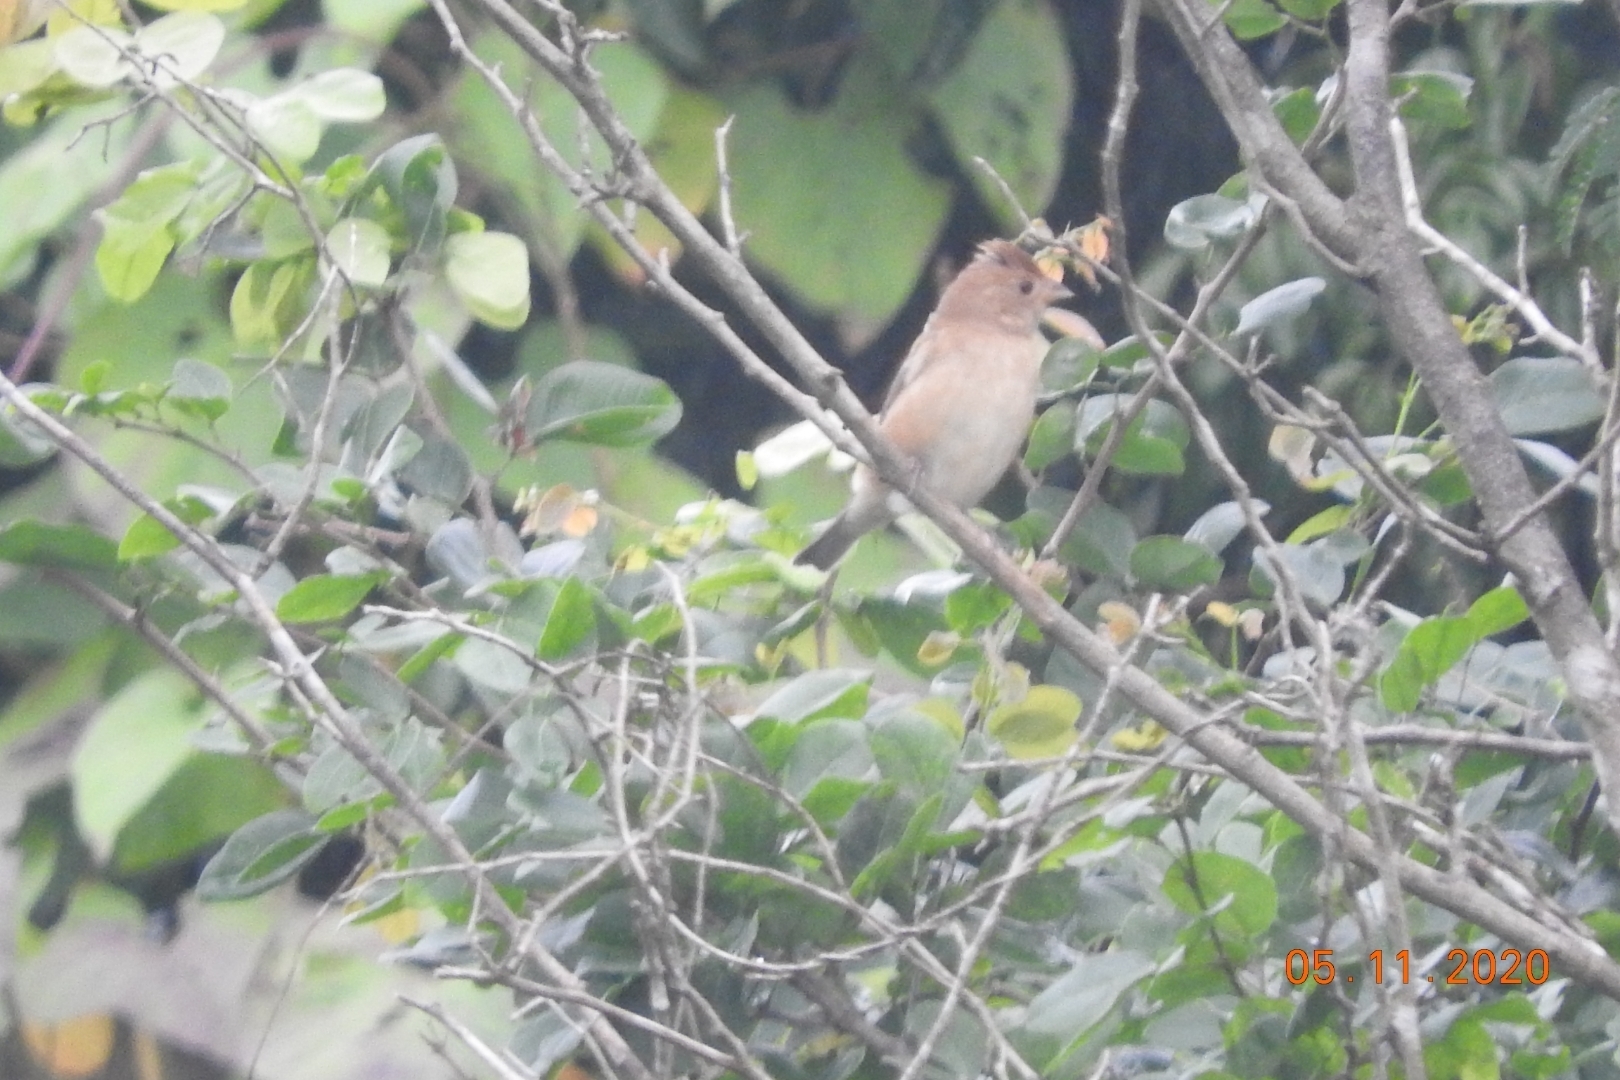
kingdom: Animalia
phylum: Chordata
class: Aves
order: Passeriformes
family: Cardinalidae
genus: Passerina
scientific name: Passerina cyanea
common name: Indigo bunting
